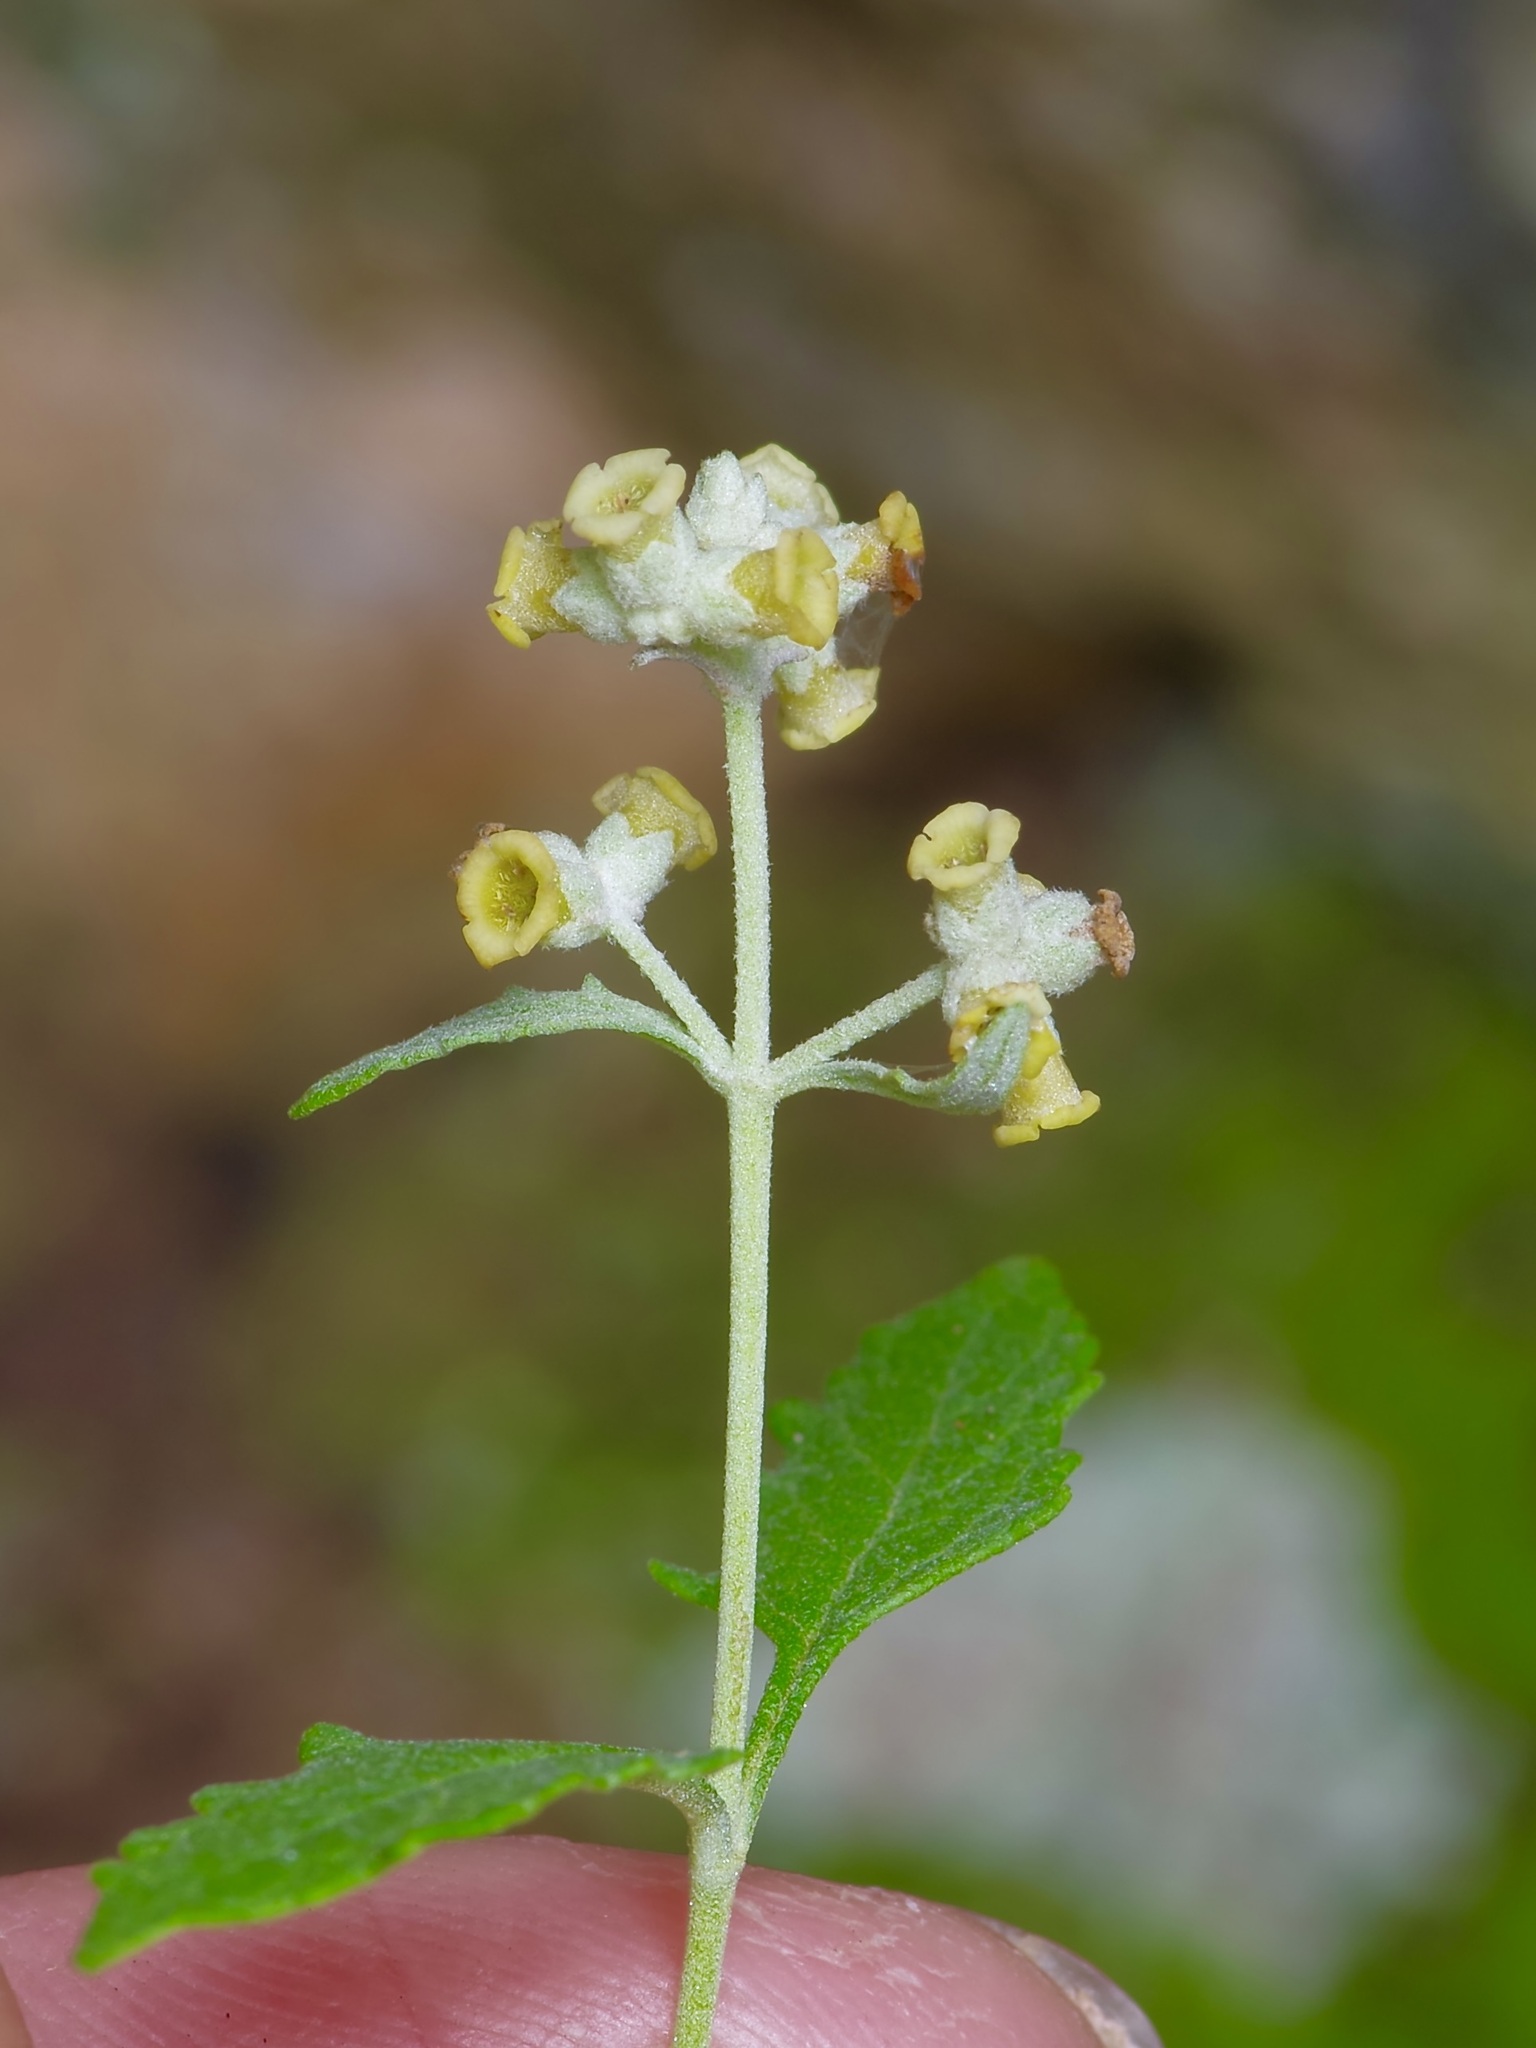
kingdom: Plantae
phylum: Tracheophyta
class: Magnoliopsida
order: Lamiales
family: Scrophulariaceae
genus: Buddleja
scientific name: Buddleja racemosa
